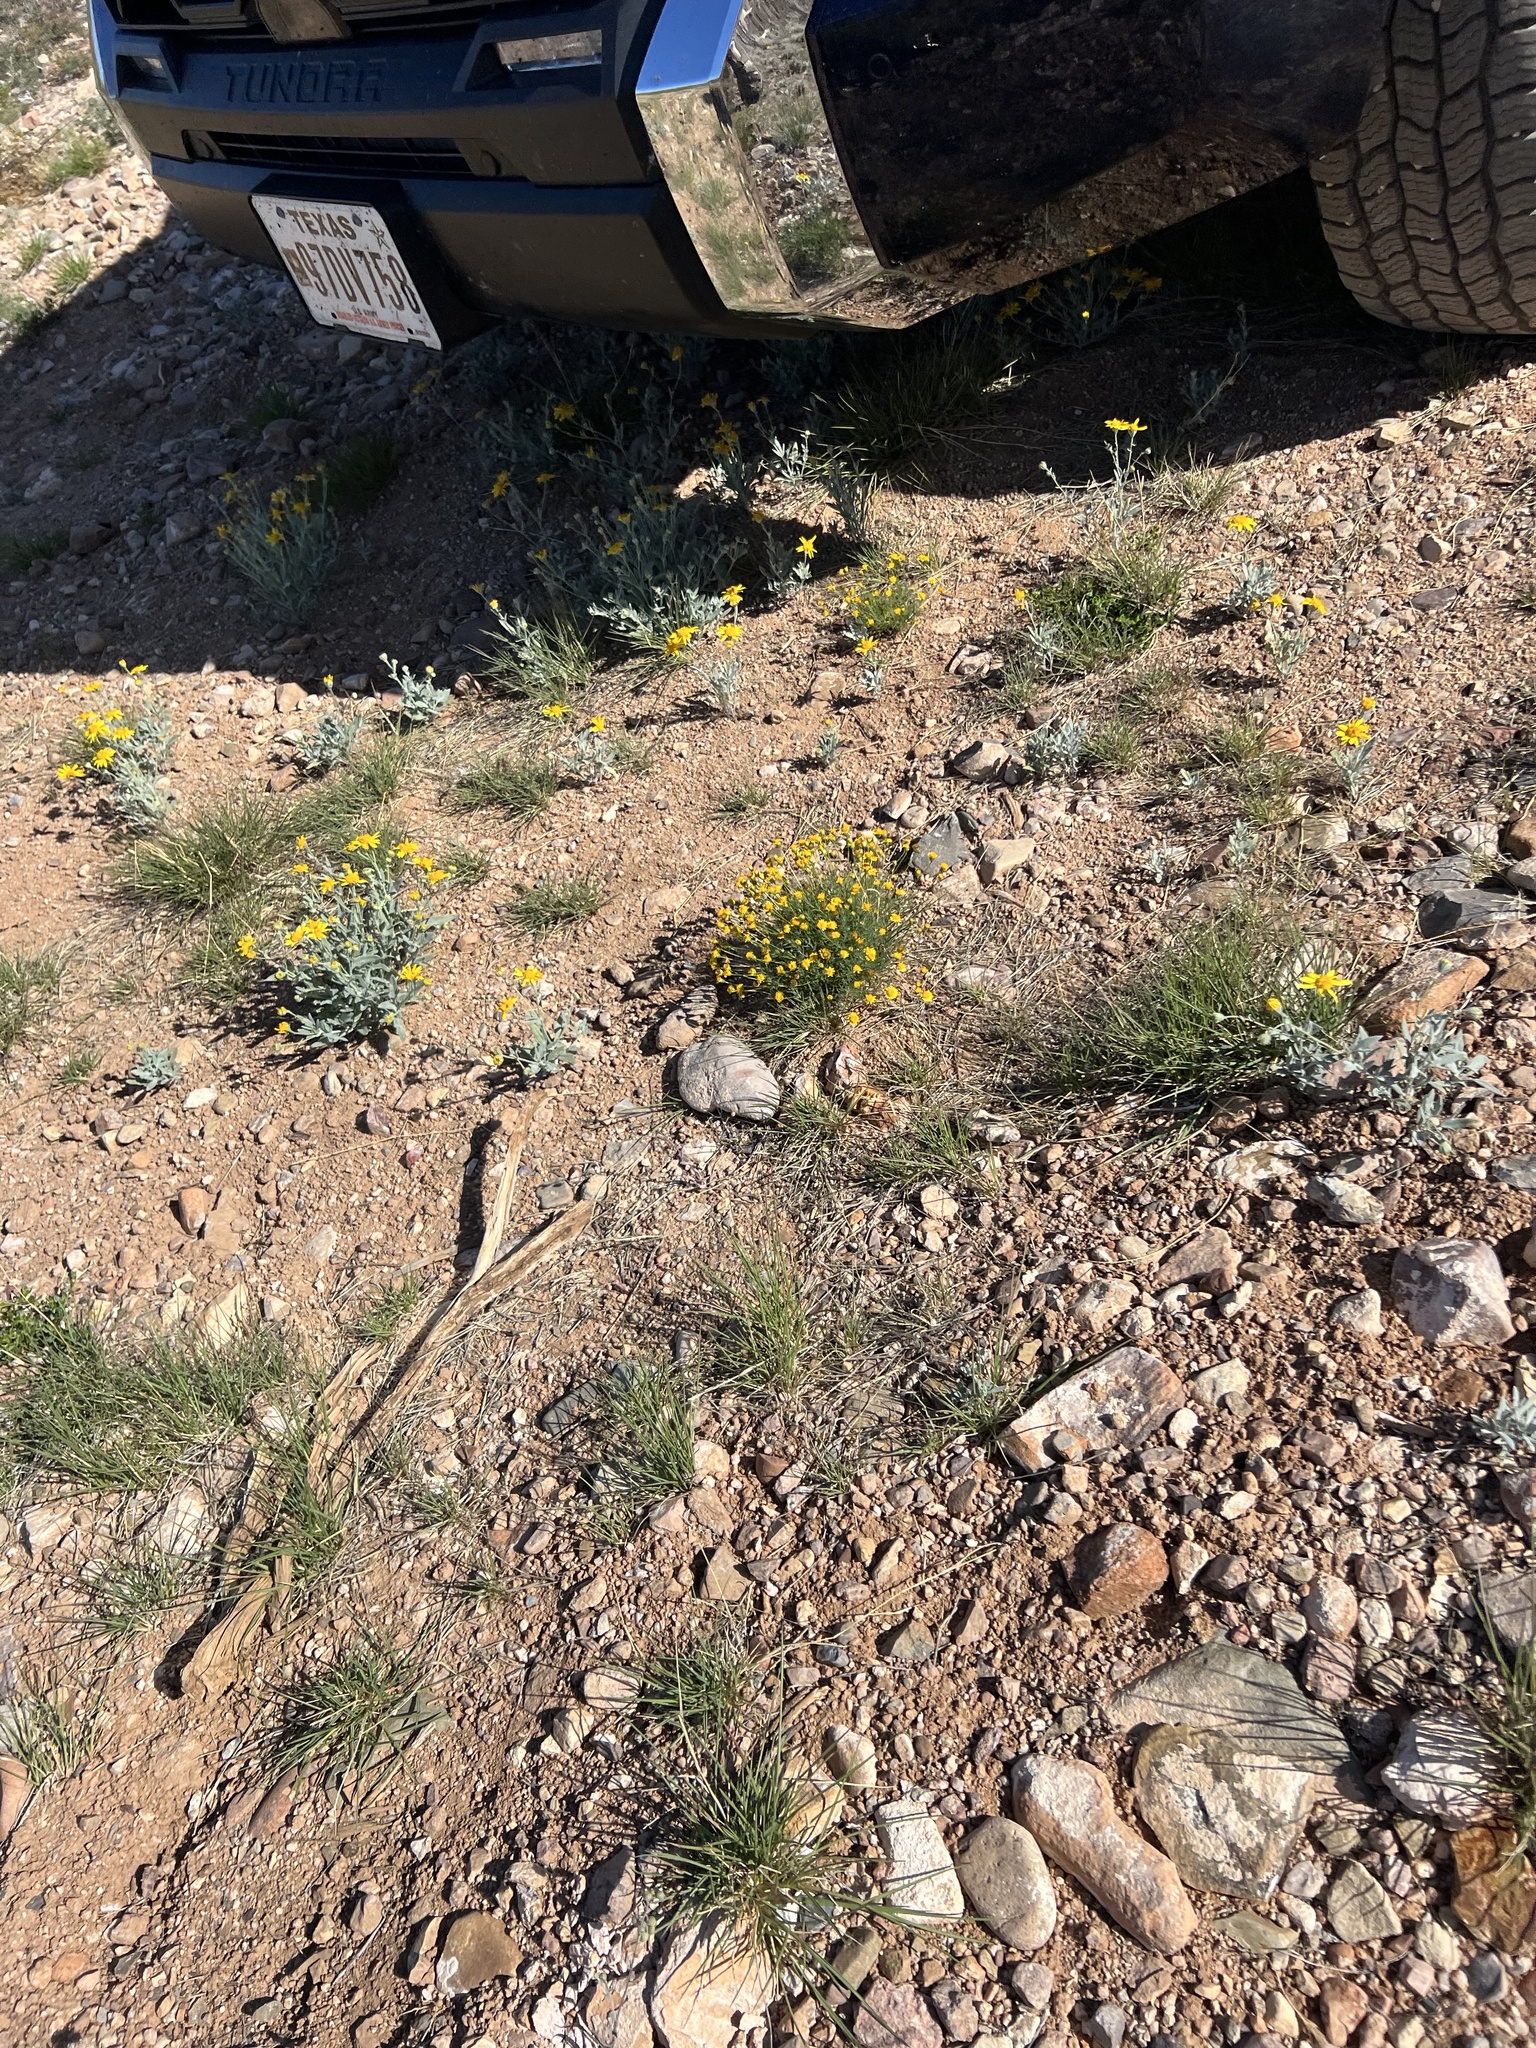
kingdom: Plantae
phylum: Tracheophyta
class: Magnoliopsida
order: Asterales
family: Asteraceae
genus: Thymophylla
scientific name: Thymophylla pentachaeta
